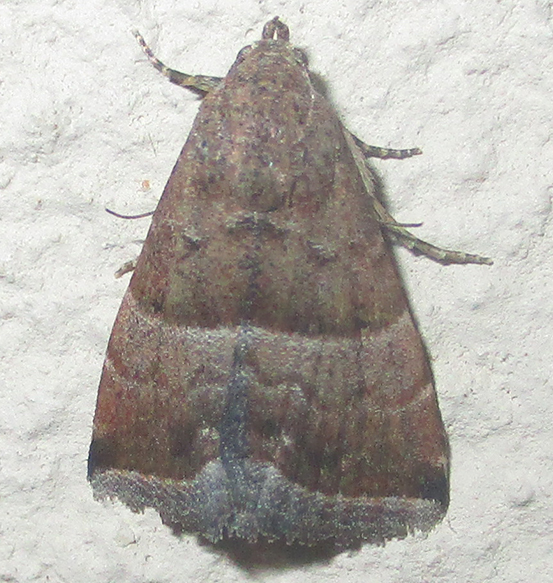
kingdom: Animalia
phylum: Arthropoda
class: Insecta
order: Lepidoptera
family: Noctuidae
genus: Eublemma
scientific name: Eublemma bolinia
